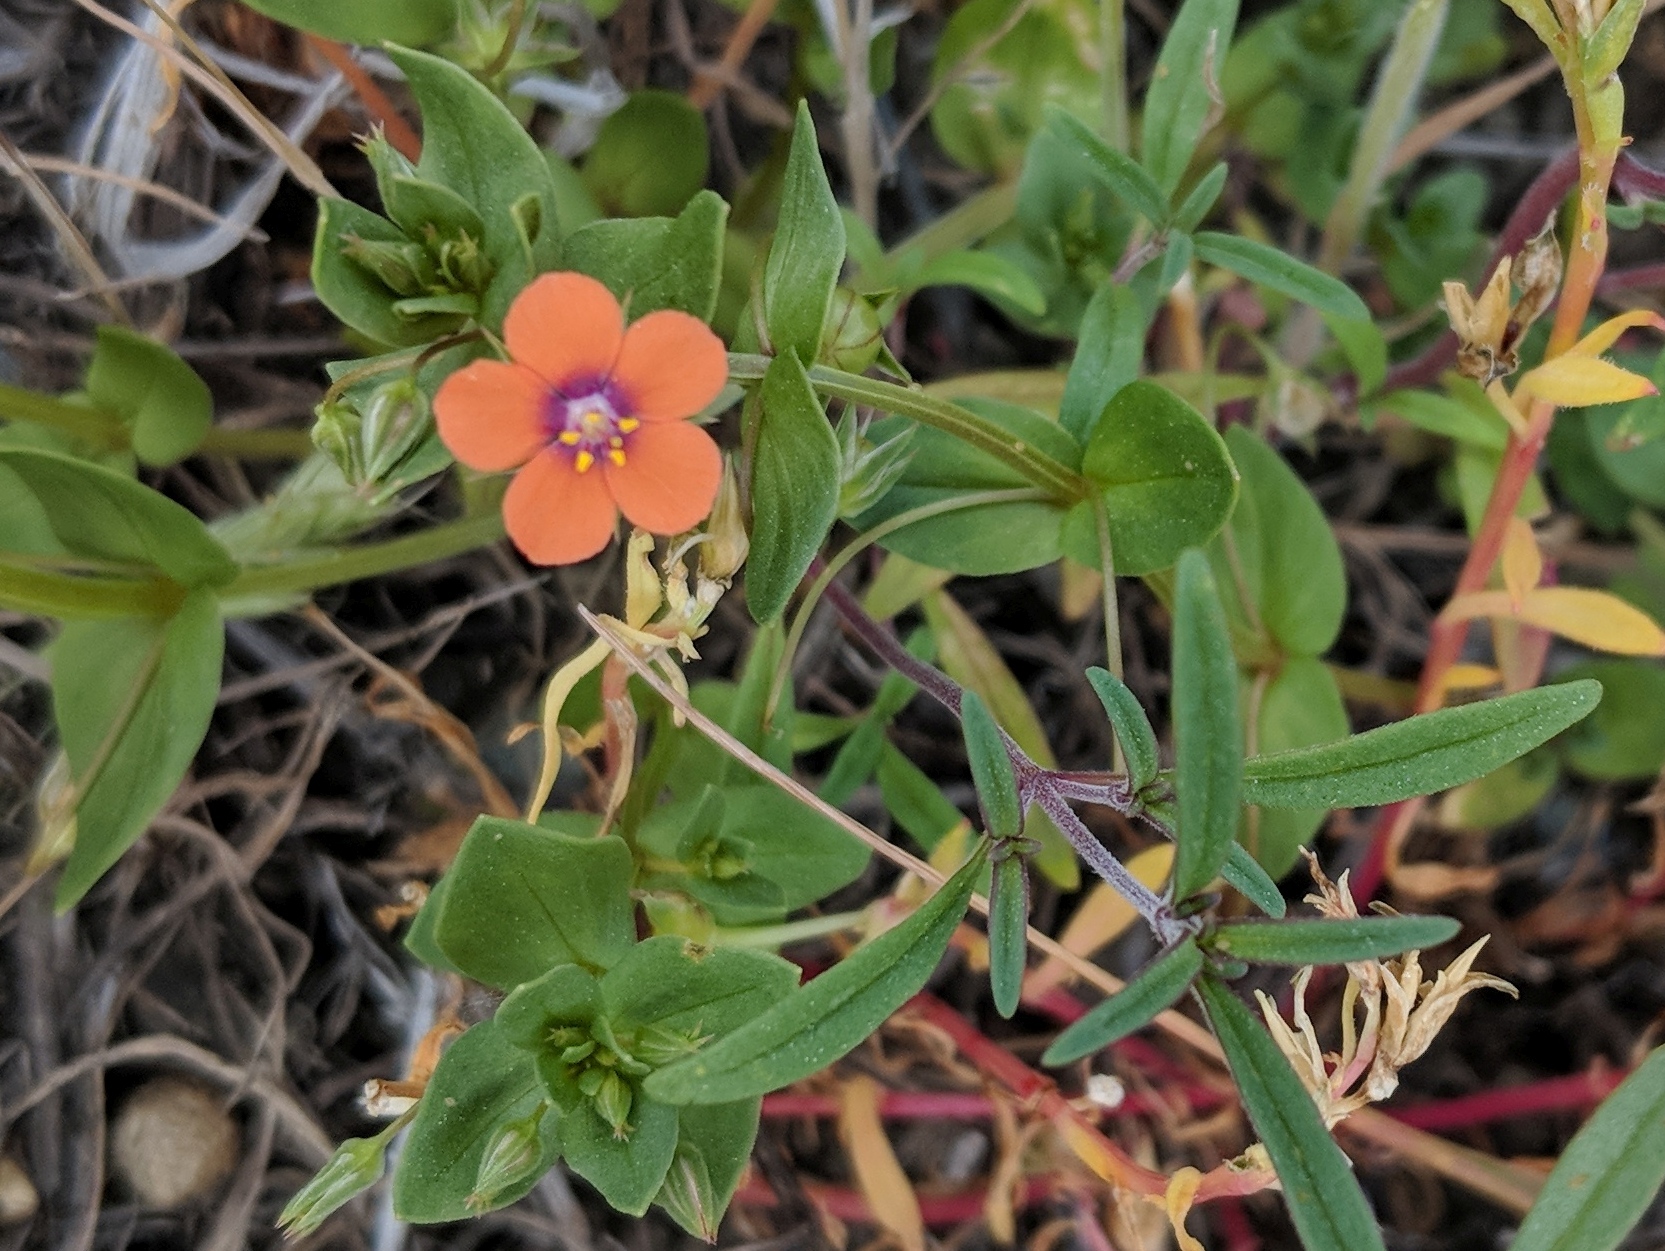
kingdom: Plantae
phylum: Tracheophyta
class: Magnoliopsida
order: Ericales
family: Primulaceae
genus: Lysimachia
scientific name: Lysimachia arvensis
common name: Scarlet pimpernel
